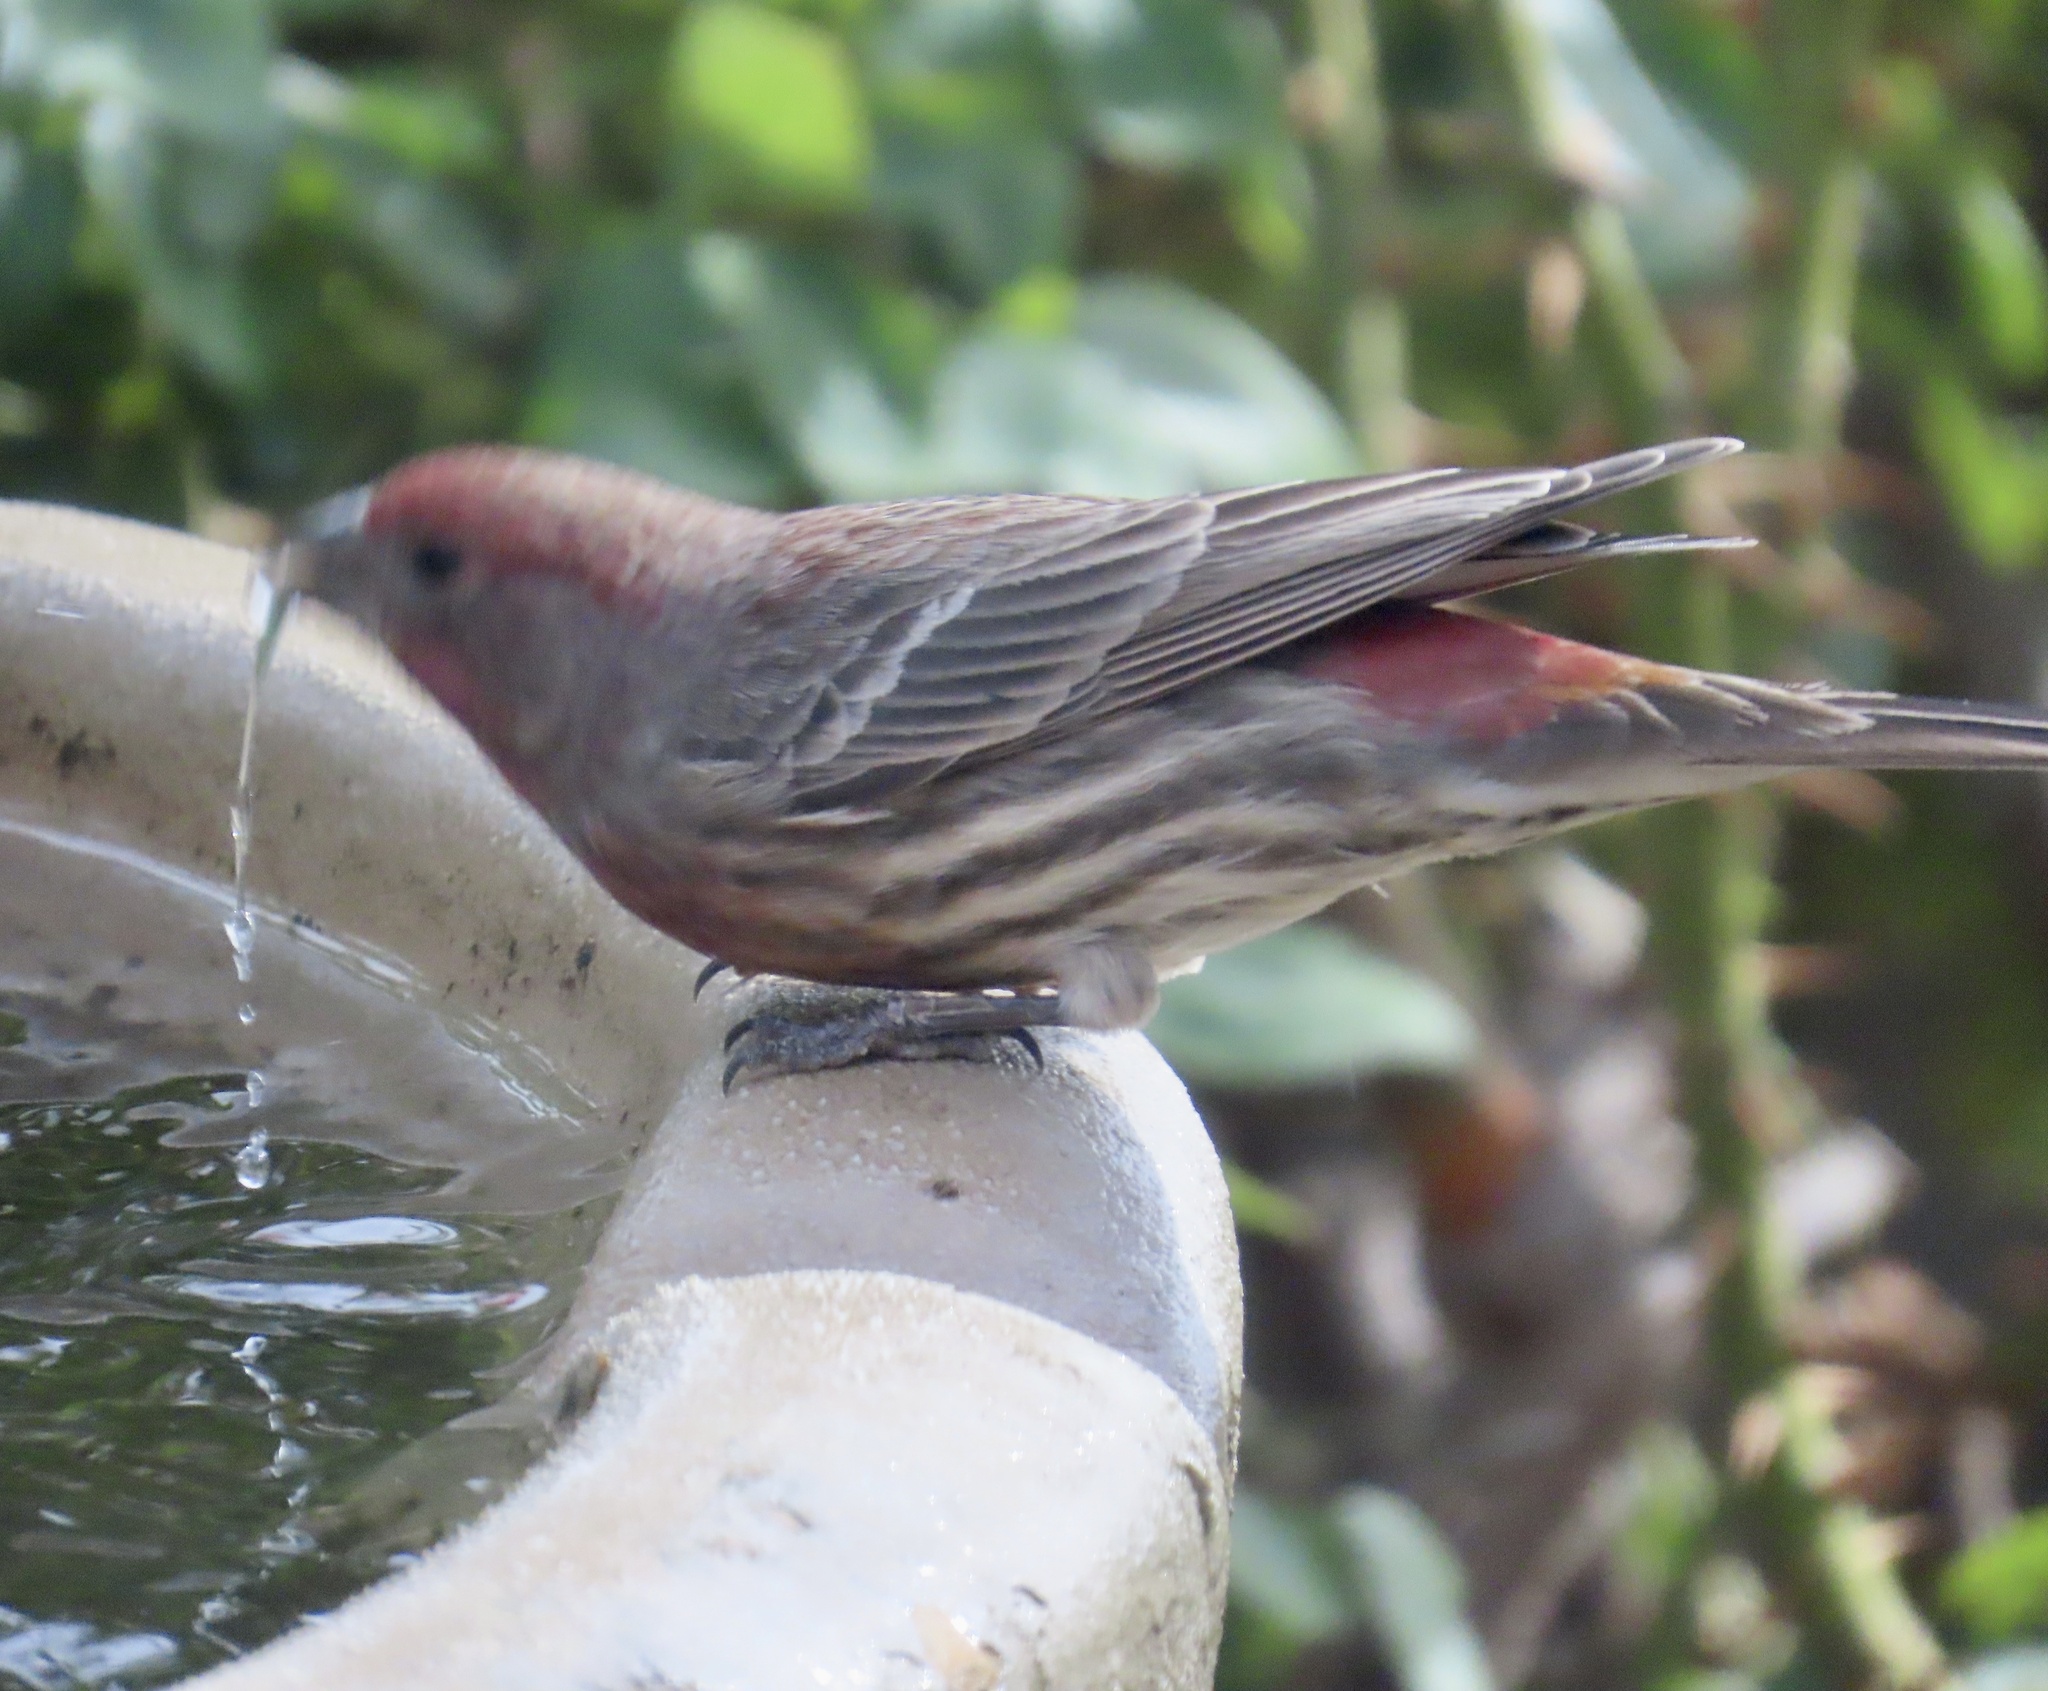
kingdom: Animalia
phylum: Chordata
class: Aves
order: Passeriformes
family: Fringillidae
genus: Haemorhous
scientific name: Haemorhous mexicanus
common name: House finch
